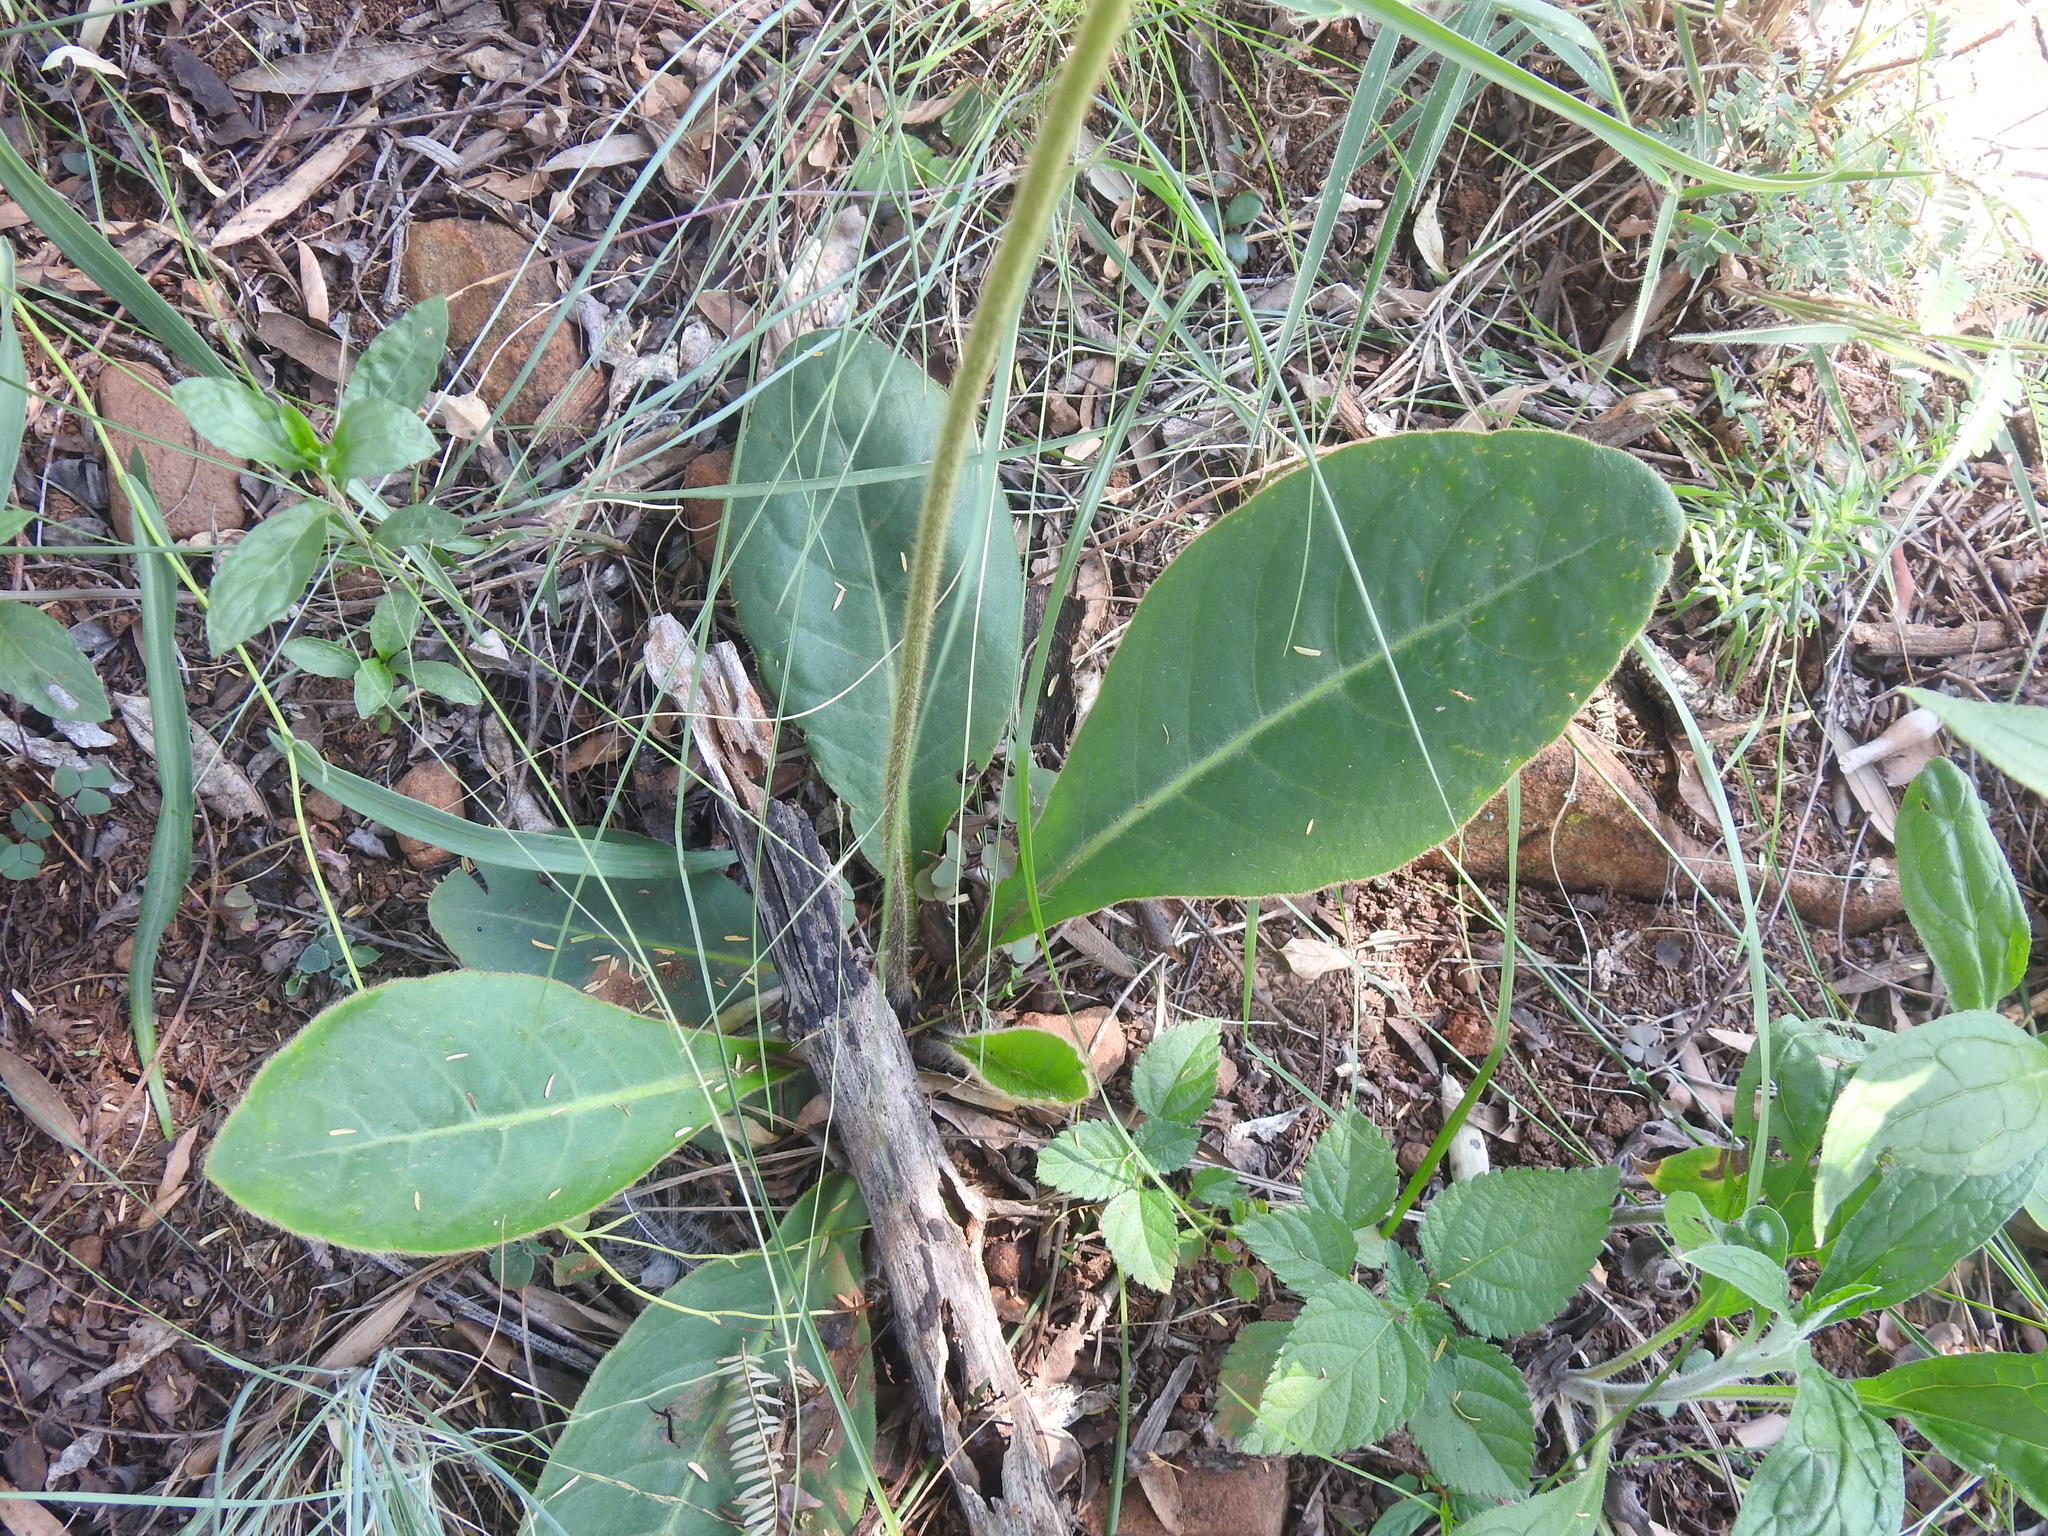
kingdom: Plantae
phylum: Tracheophyta
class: Magnoliopsida
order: Asterales
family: Asteraceae
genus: Piloselloides
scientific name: Piloselloides hirsuta
